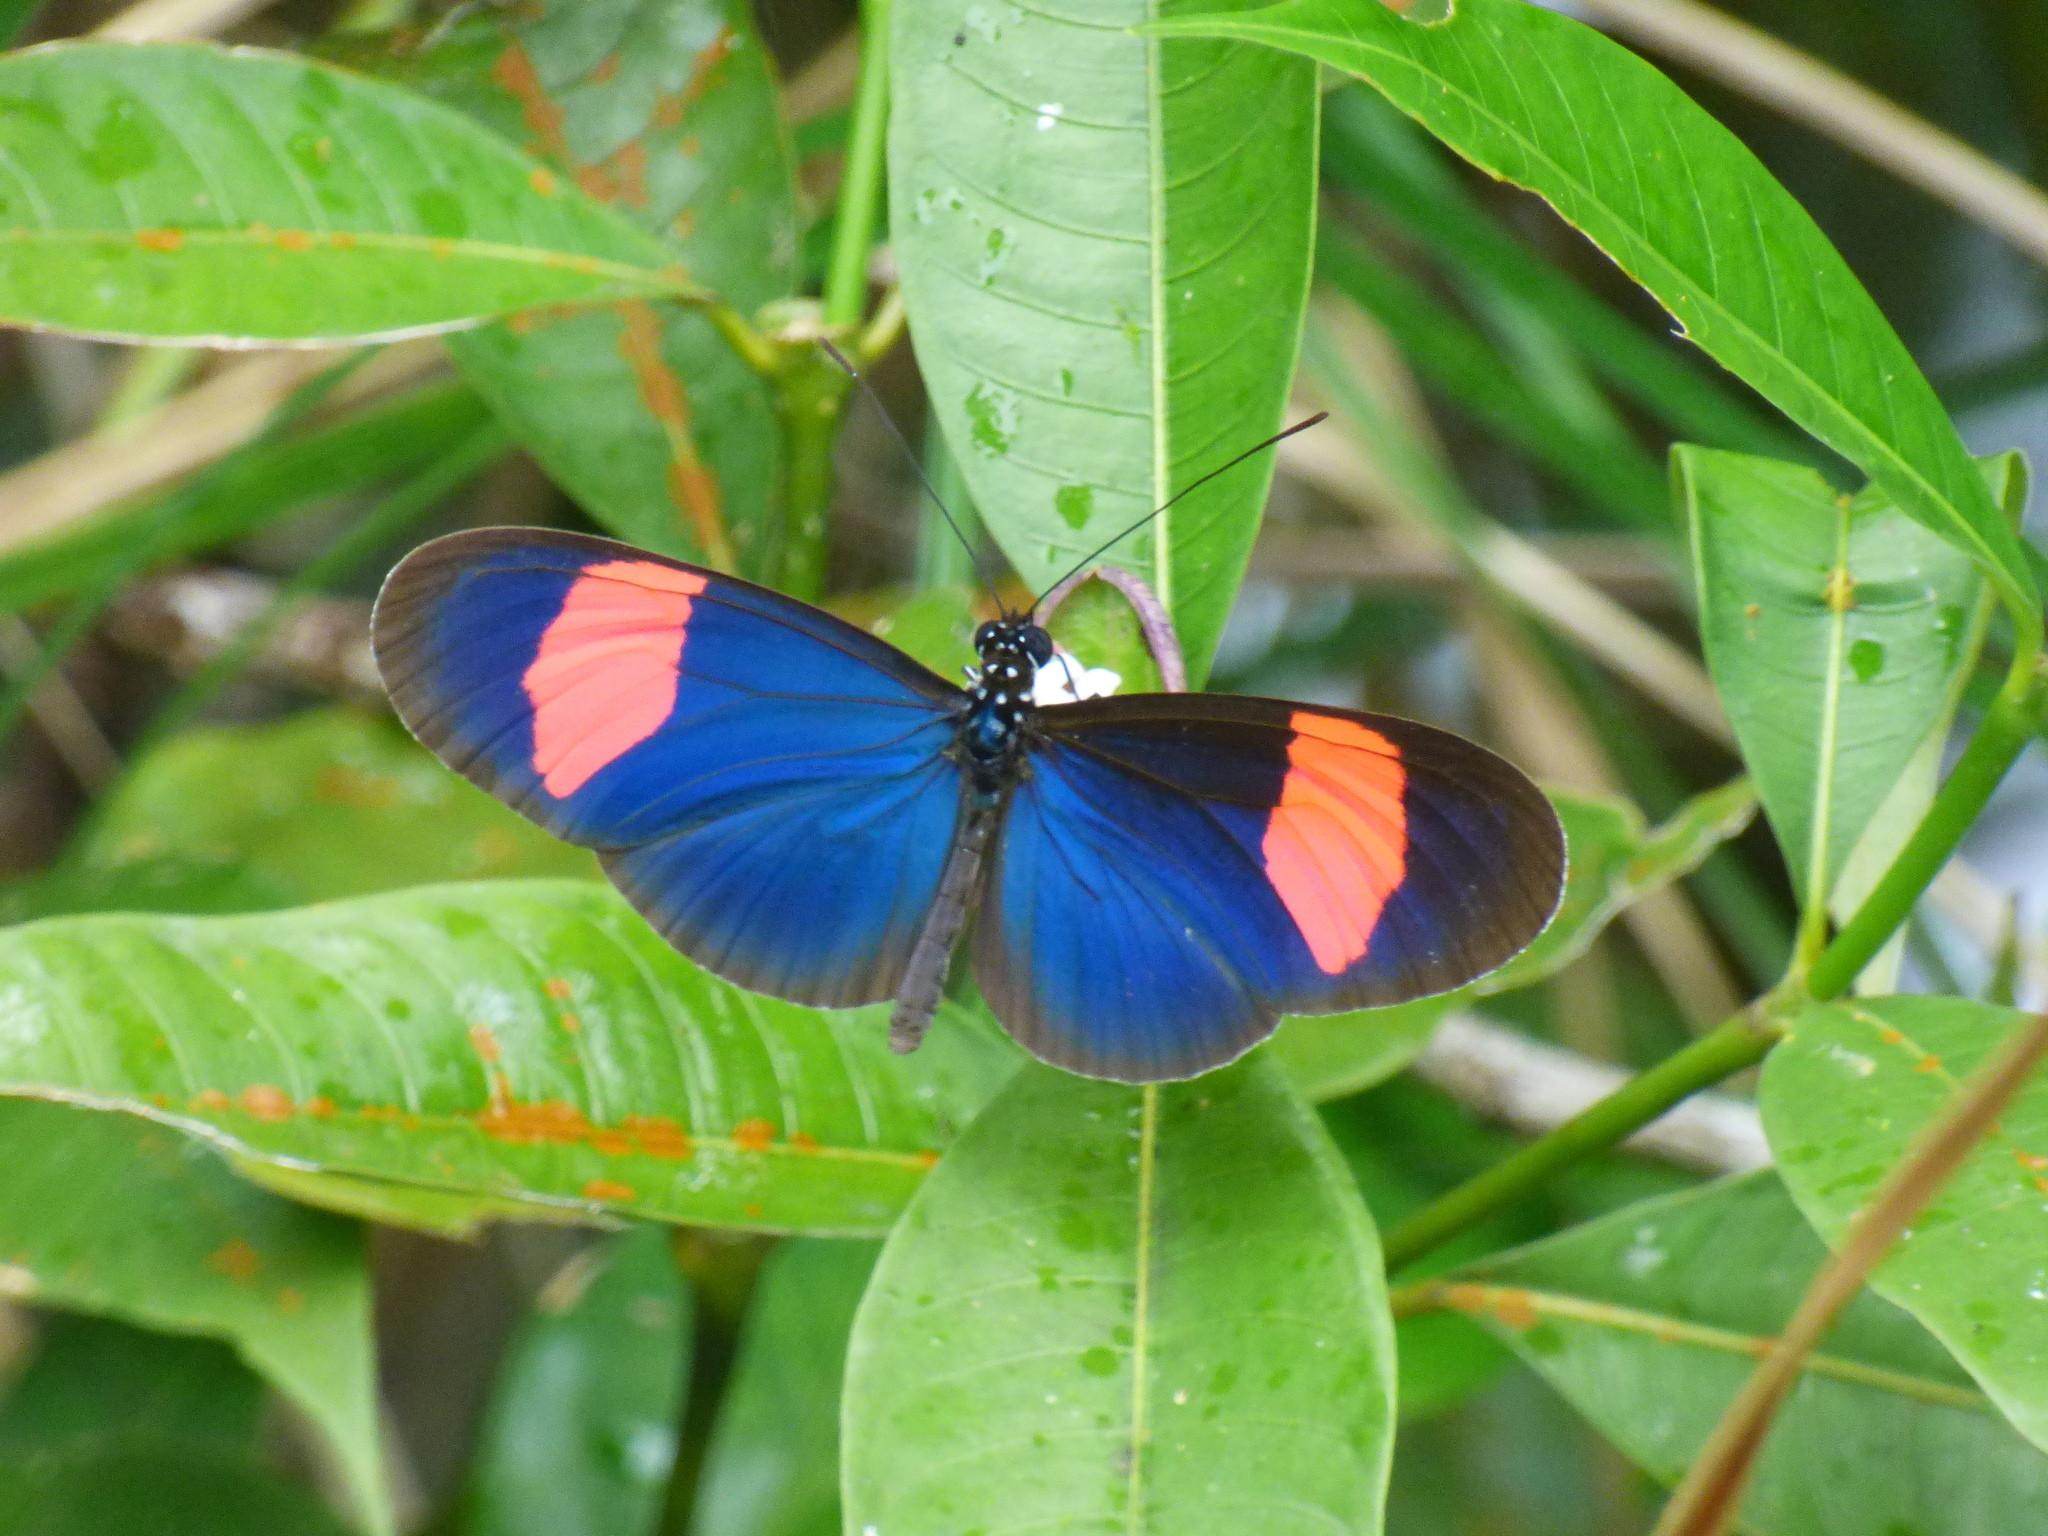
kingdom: Animalia
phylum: Arthropoda
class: Insecta
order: Lepidoptera
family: Nymphalidae
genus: Heliconius
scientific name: Heliconius erato
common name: Common patch longwing
